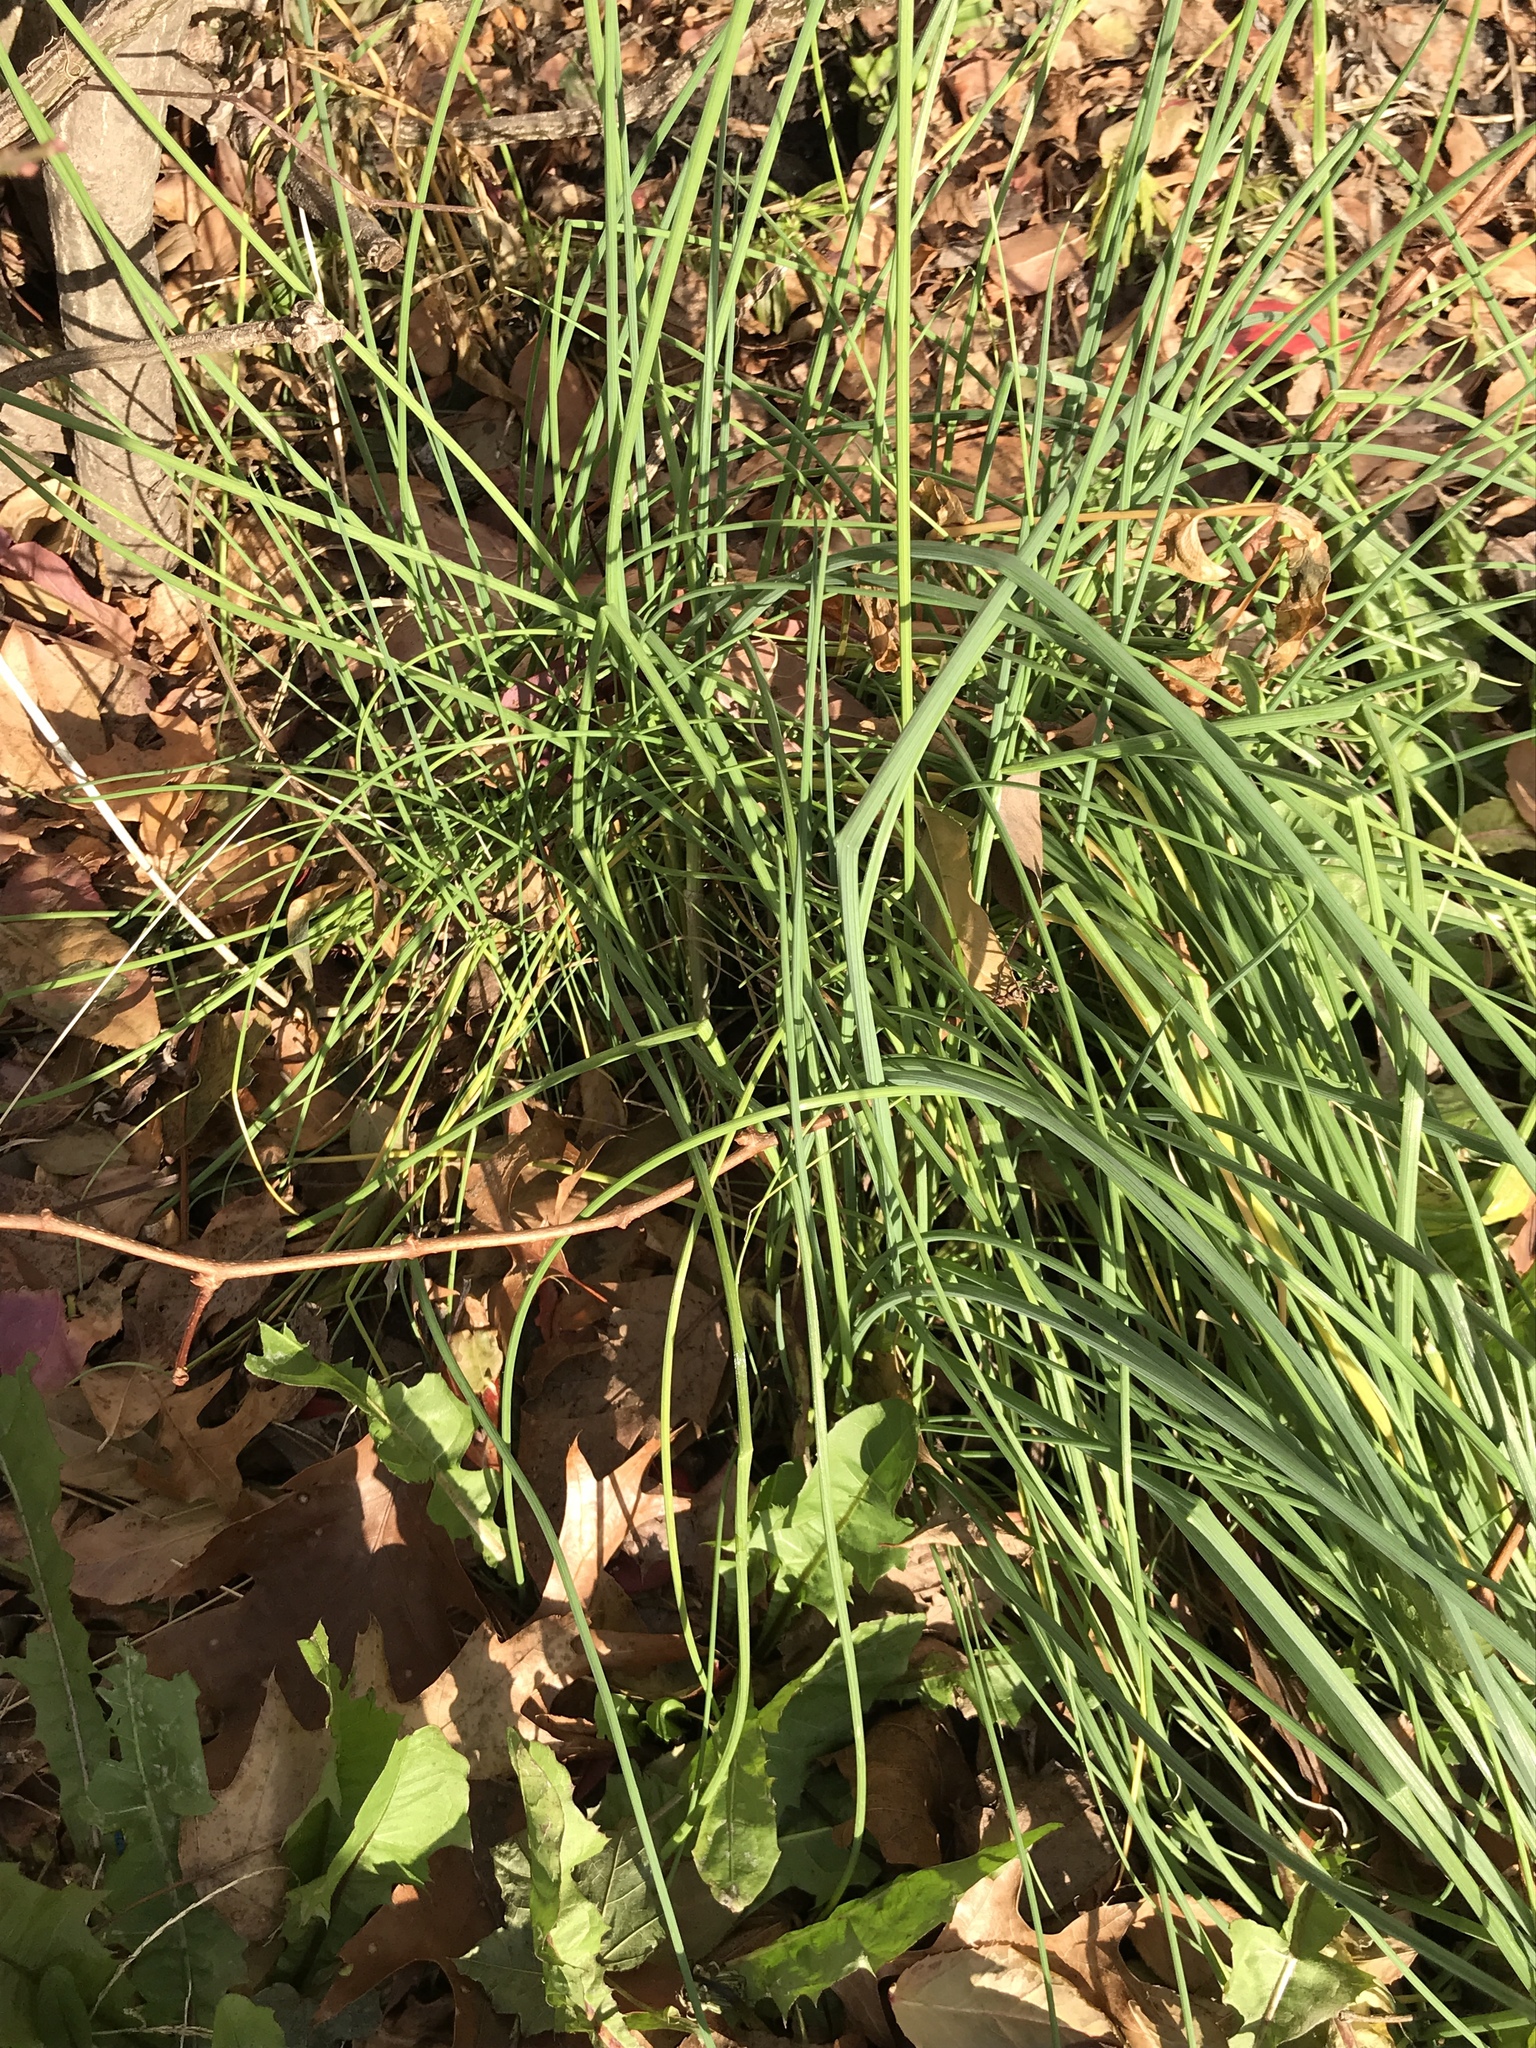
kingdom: Plantae
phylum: Tracheophyta
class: Liliopsida
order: Asparagales
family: Amaryllidaceae
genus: Allium
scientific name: Allium vineale
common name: Crow garlic
